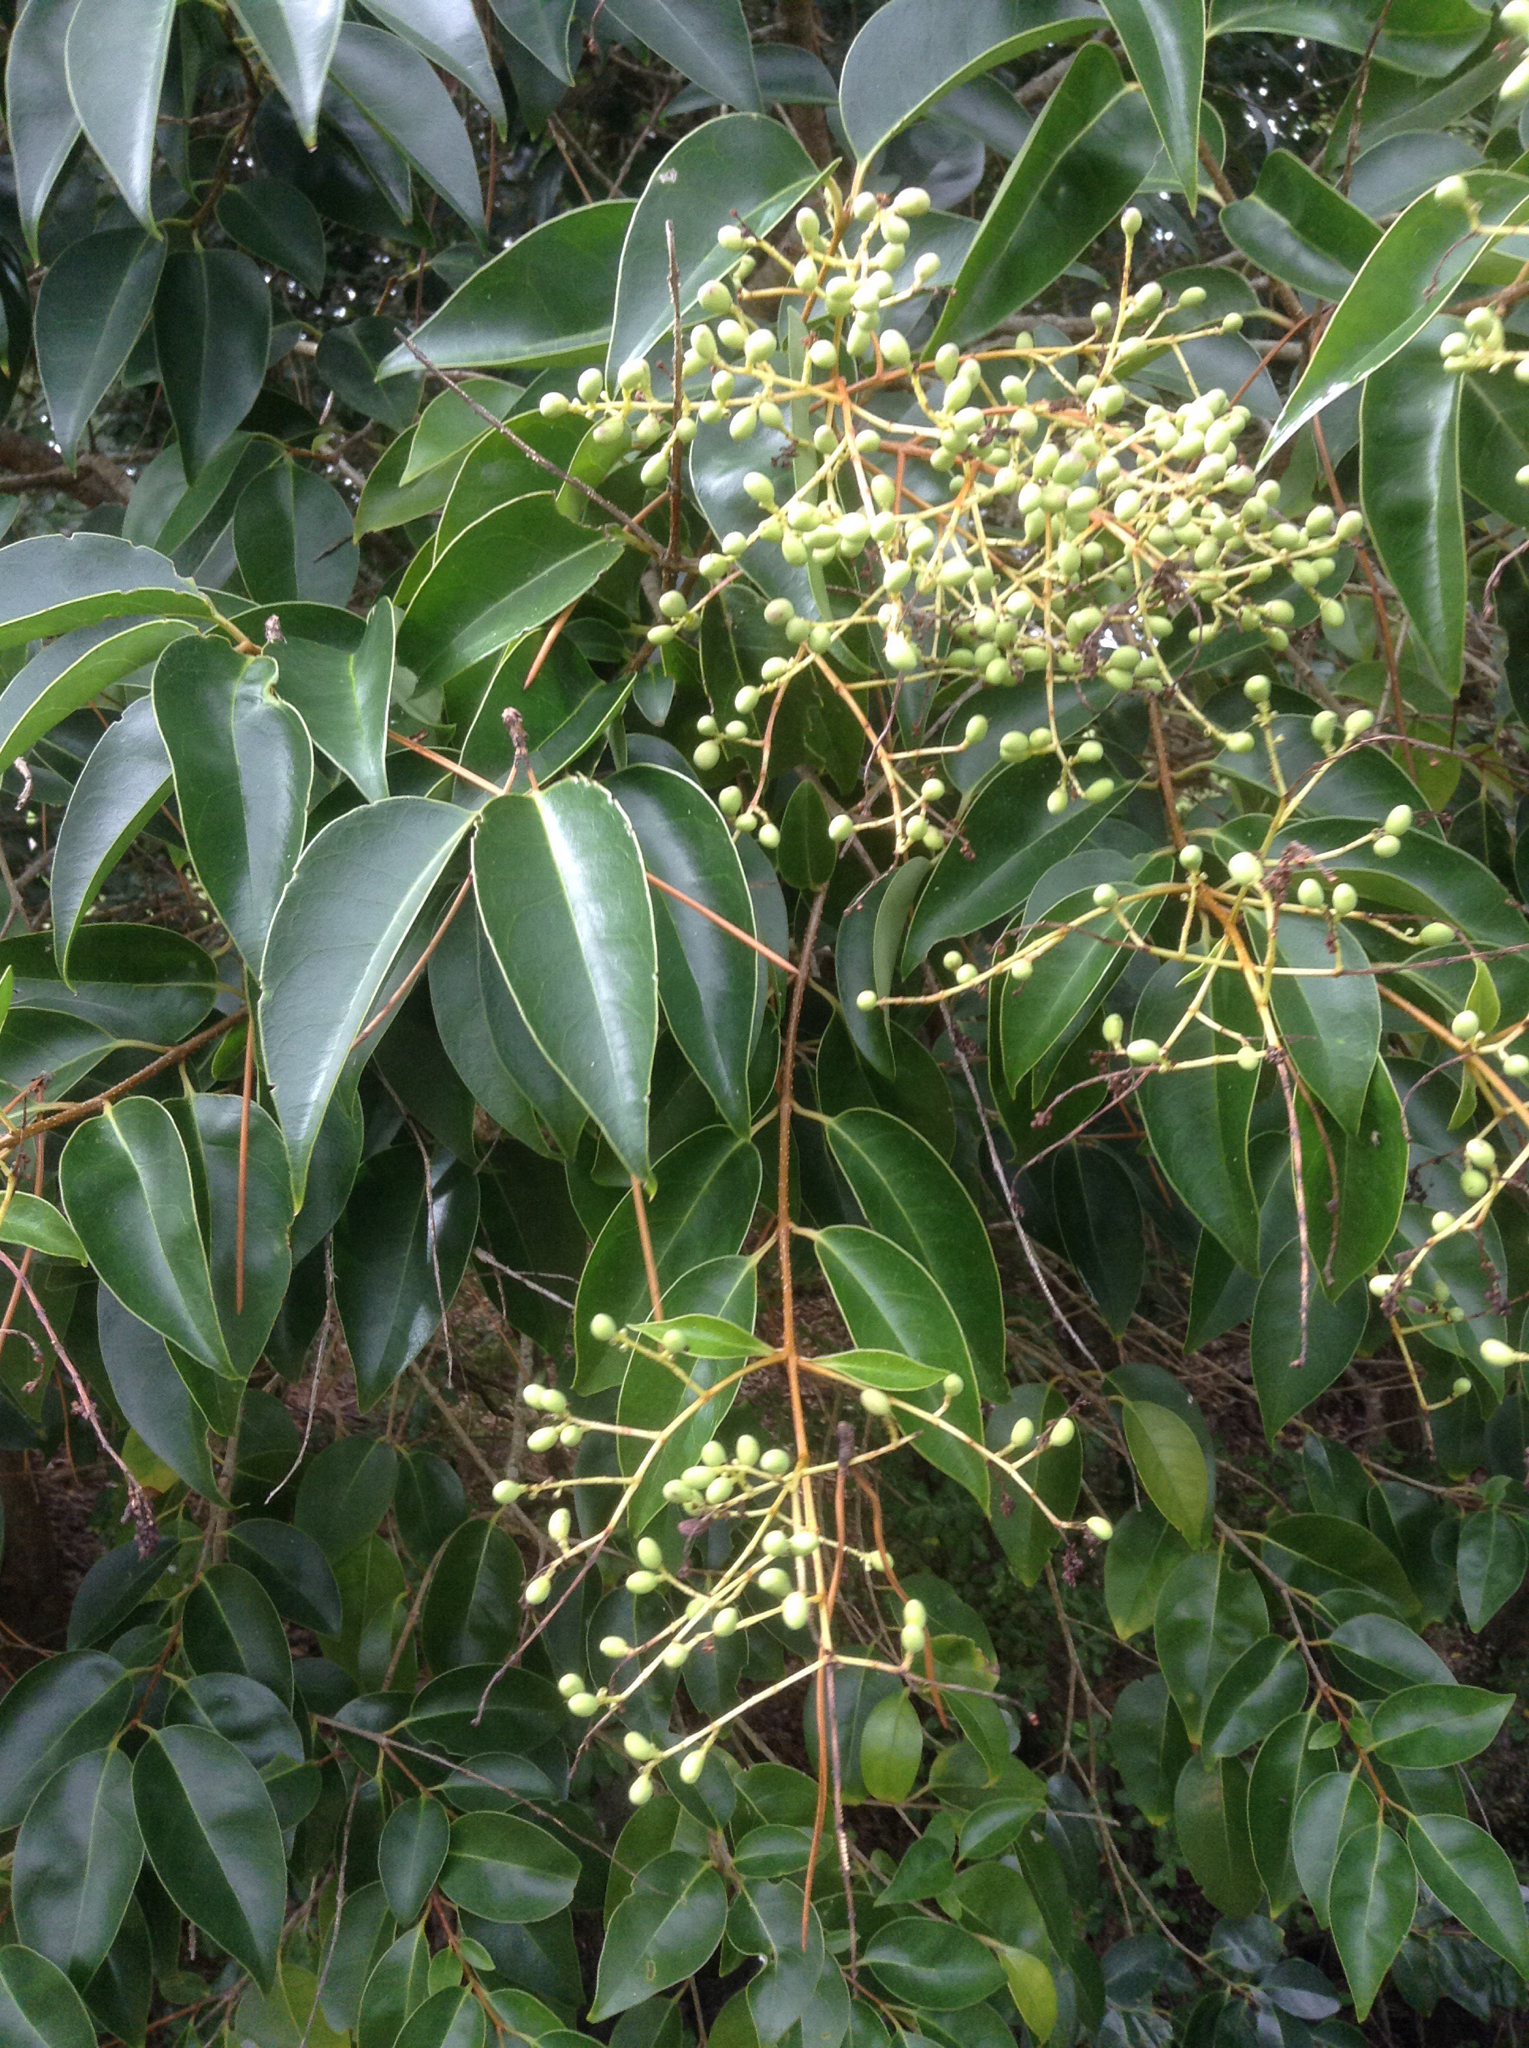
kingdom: Plantae
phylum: Tracheophyta
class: Magnoliopsida
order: Lamiales
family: Oleaceae
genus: Ligustrum
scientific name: Ligustrum lucidum
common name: Glossy privet
